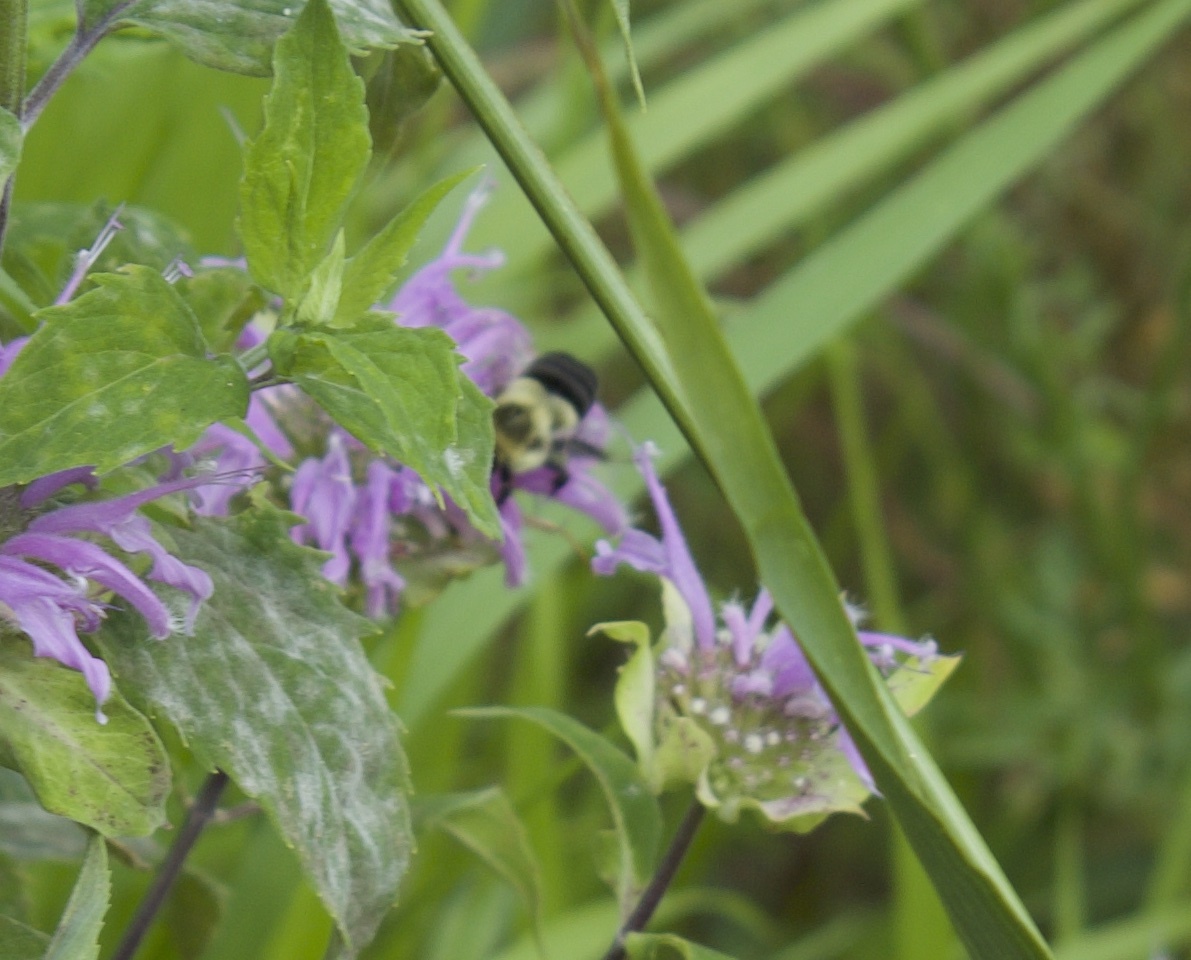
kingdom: Animalia
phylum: Arthropoda
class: Insecta
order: Hymenoptera
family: Apidae
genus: Bombus
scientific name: Bombus impatiens
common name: Common eastern bumble bee
